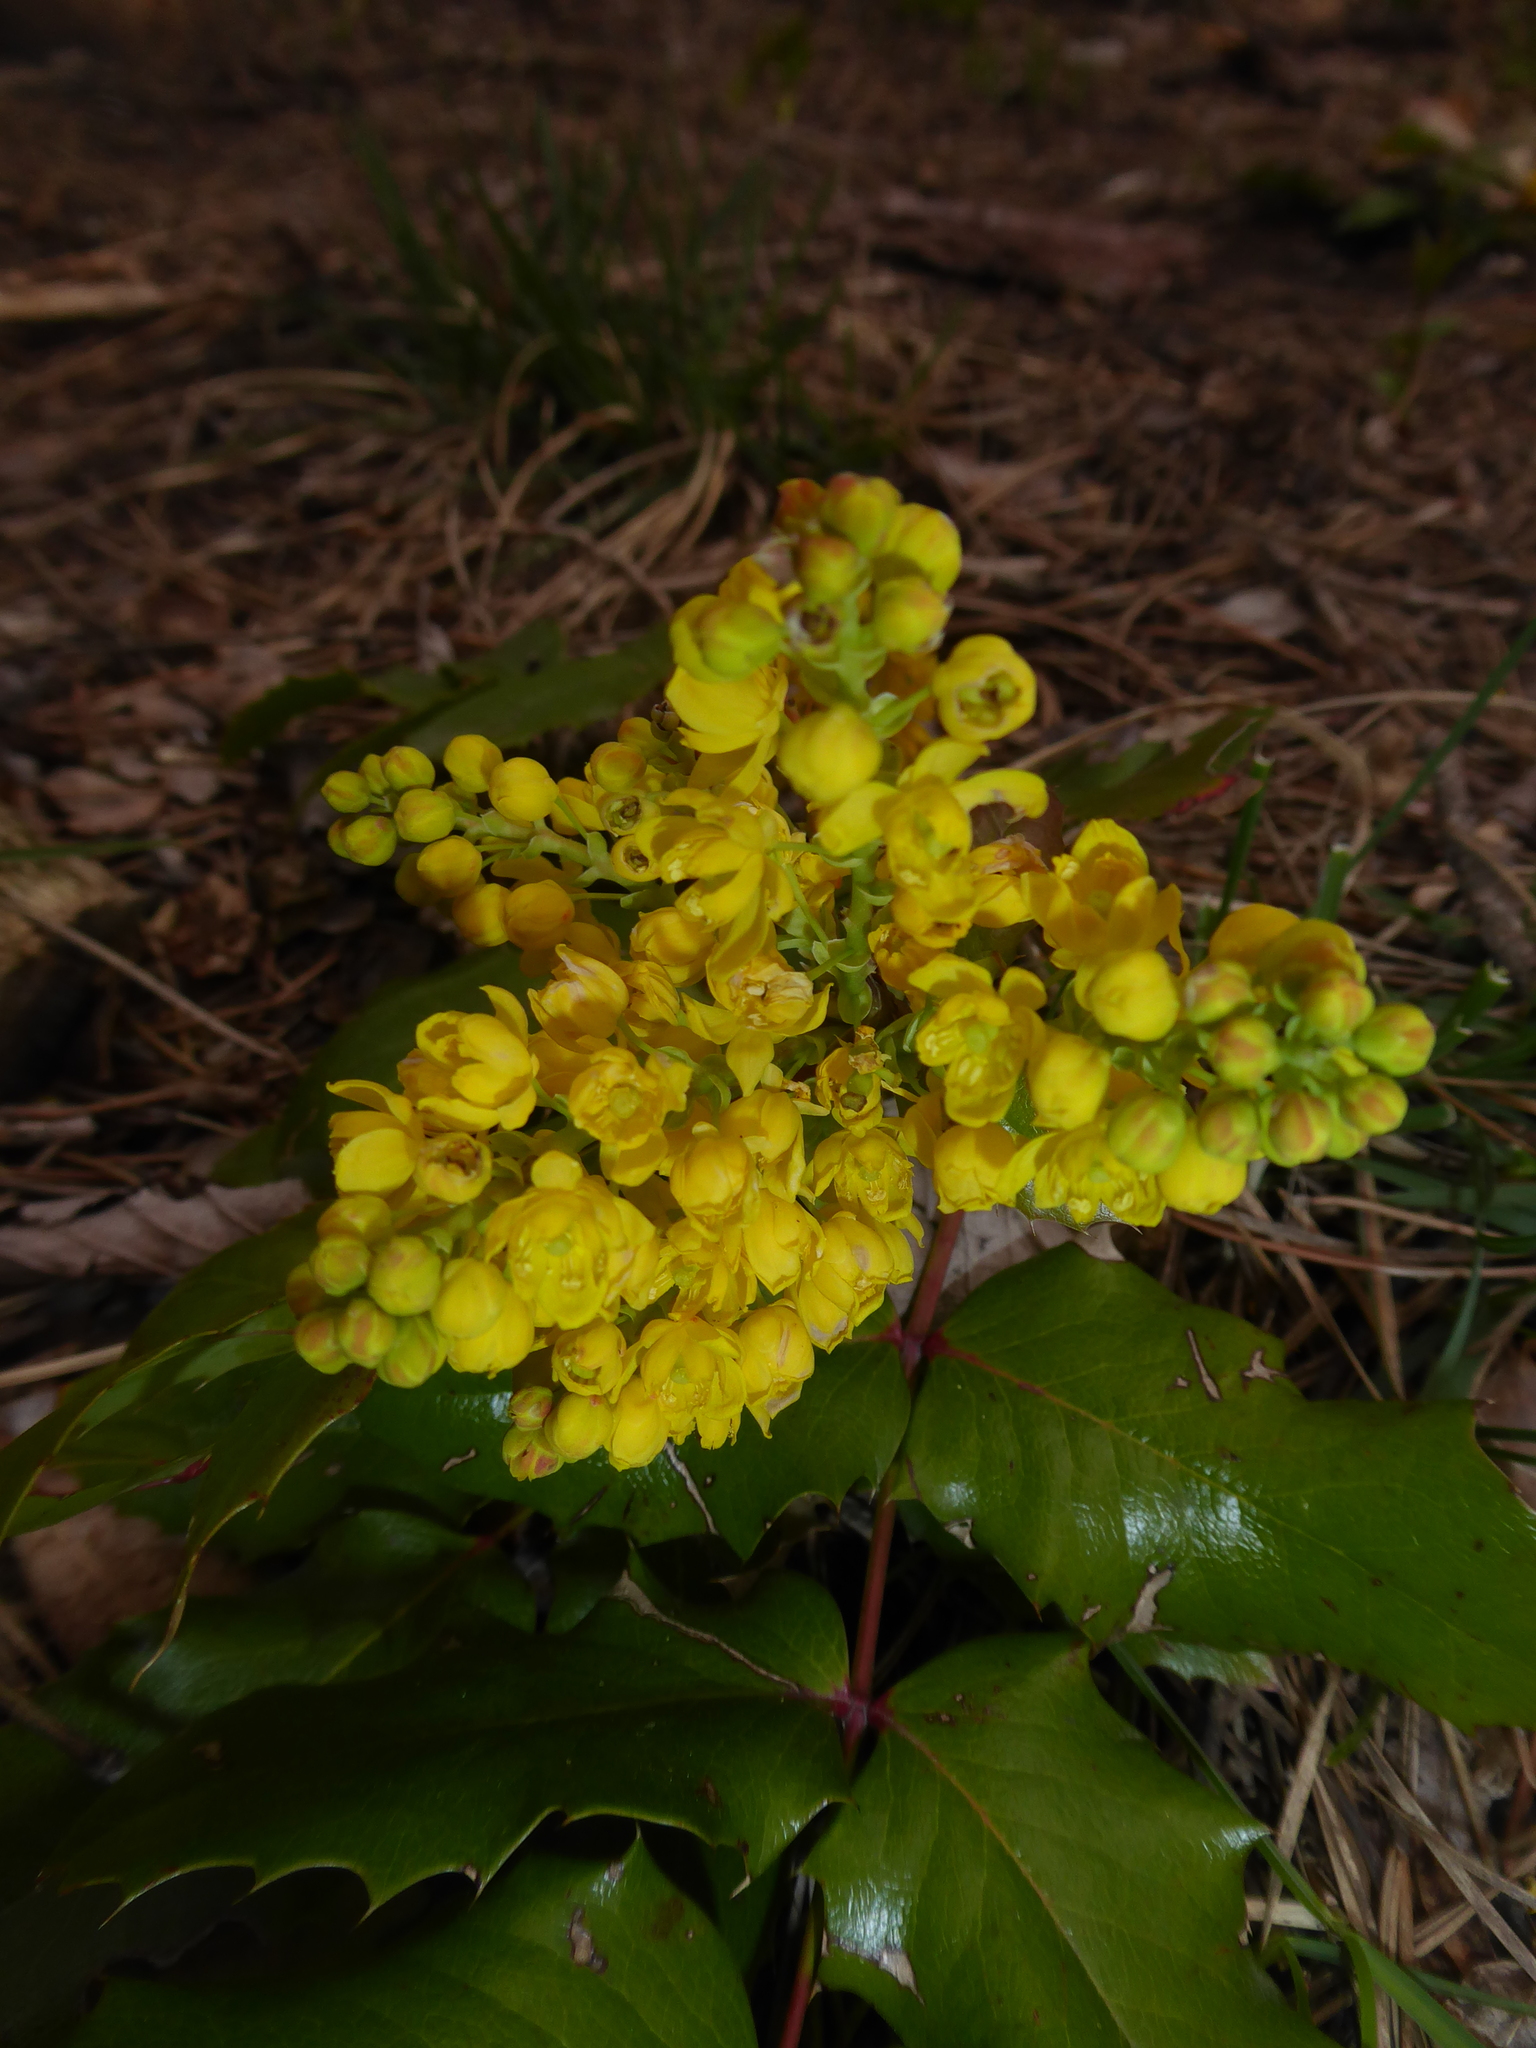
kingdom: Plantae
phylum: Tracheophyta
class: Magnoliopsida
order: Ranunculales
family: Berberidaceae
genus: Mahonia
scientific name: Mahonia aquifolium
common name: Oregon-grape
